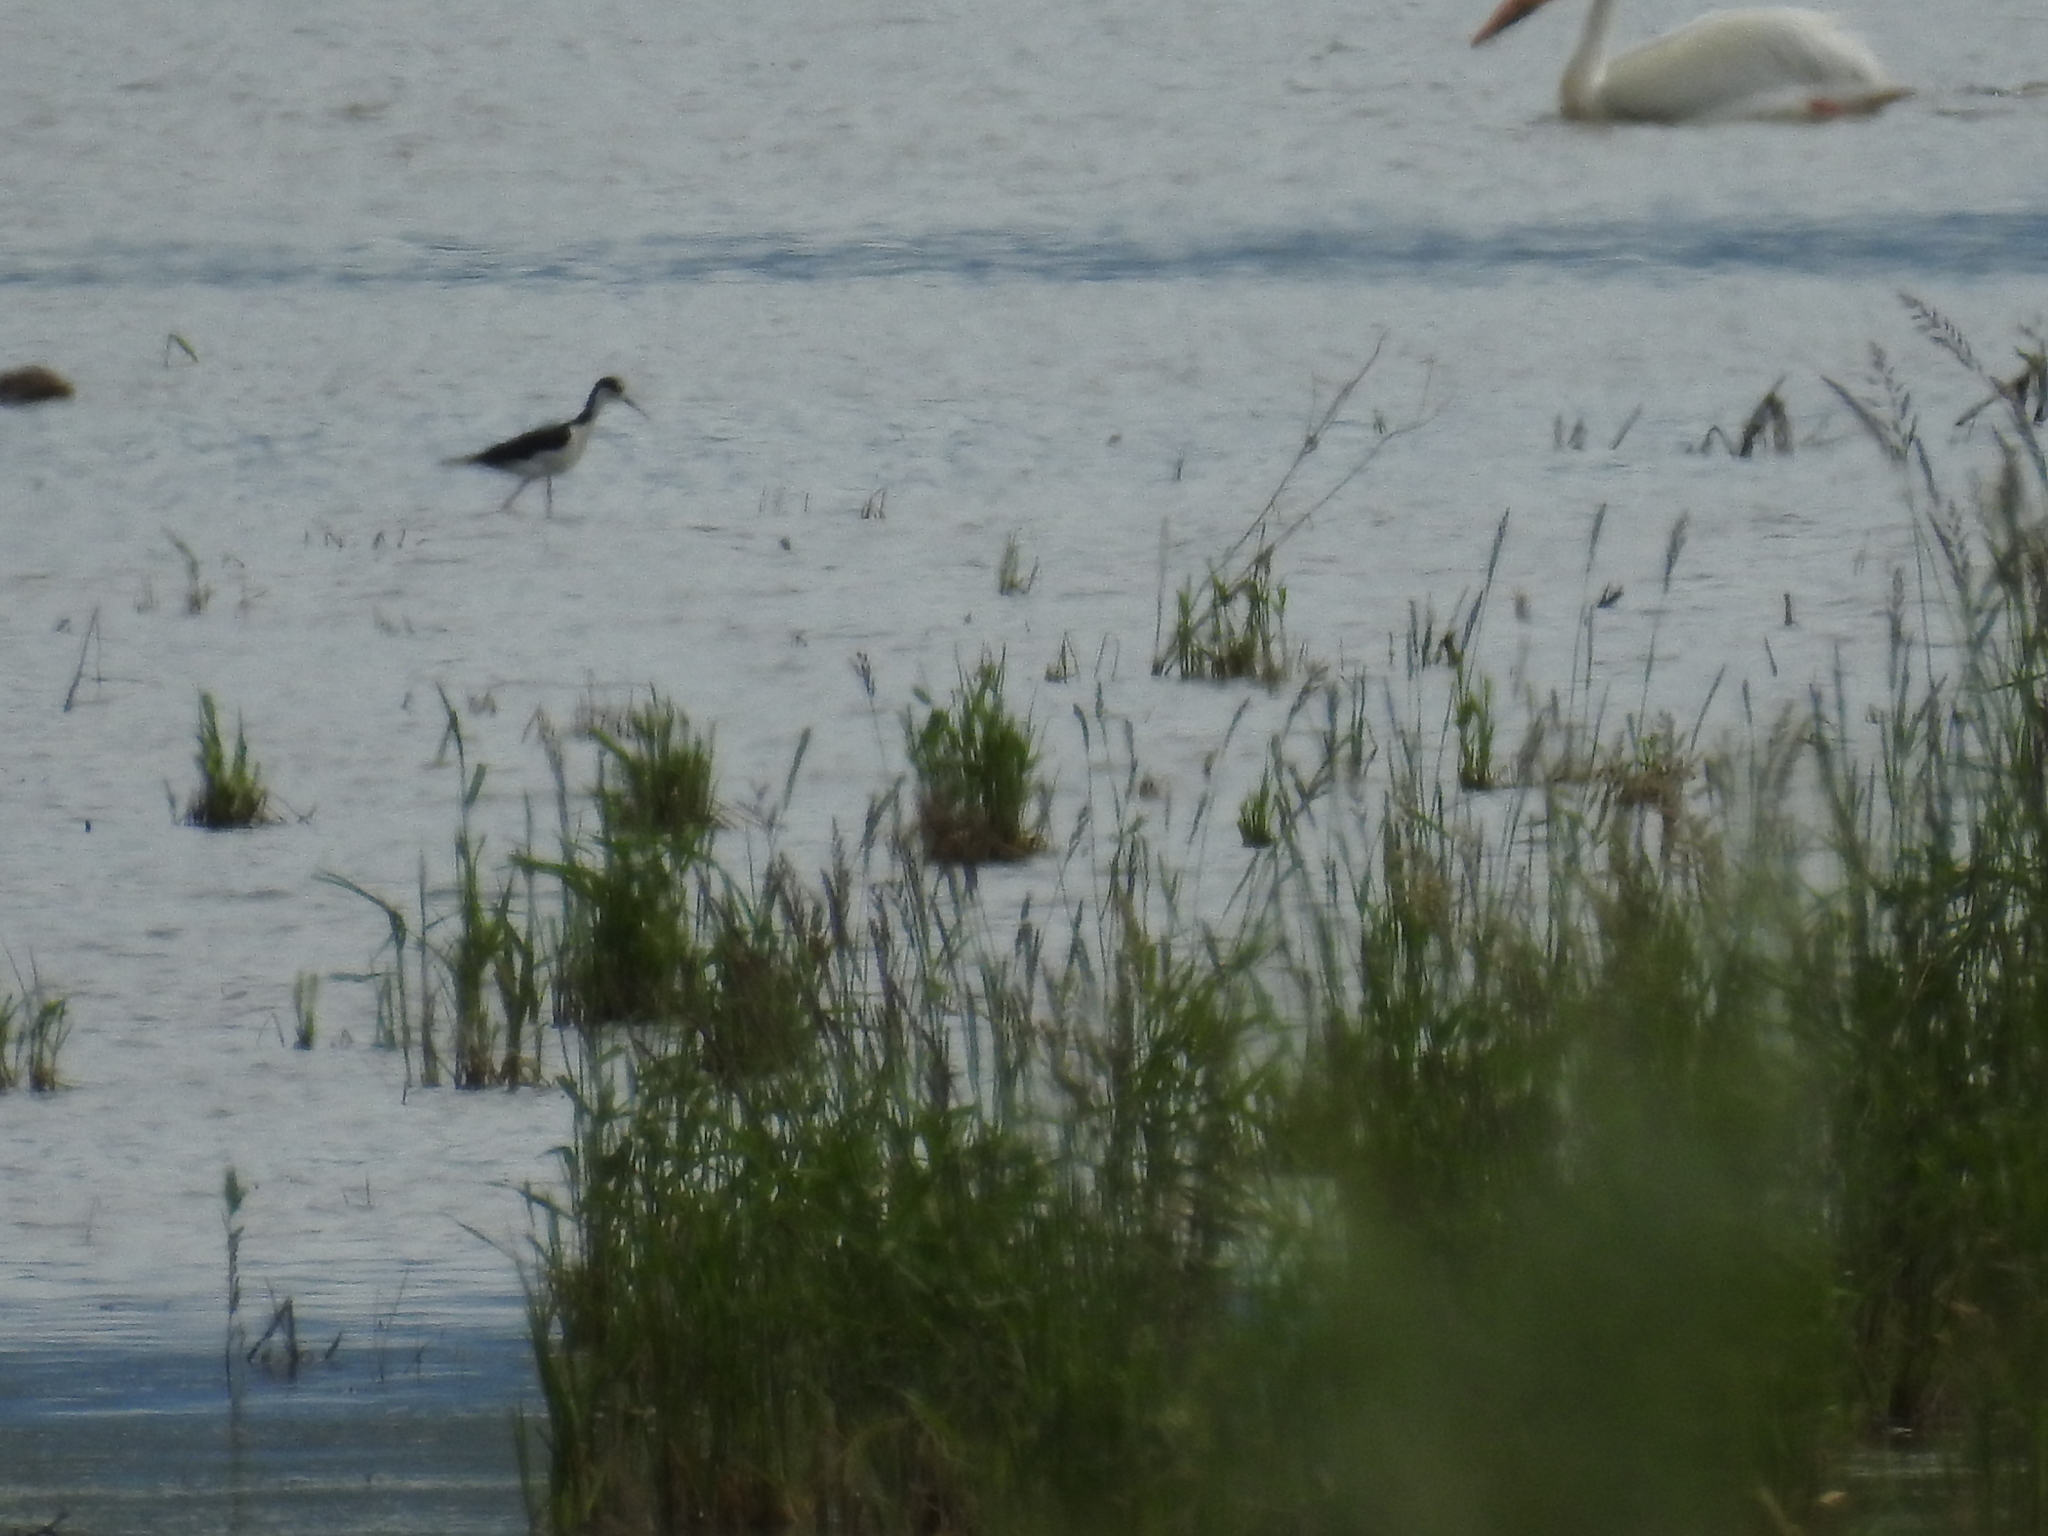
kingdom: Animalia
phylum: Chordata
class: Aves
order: Charadriiformes
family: Recurvirostridae
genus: Himantopus
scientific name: Himantopus mexicanus
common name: Black-necked stilt
